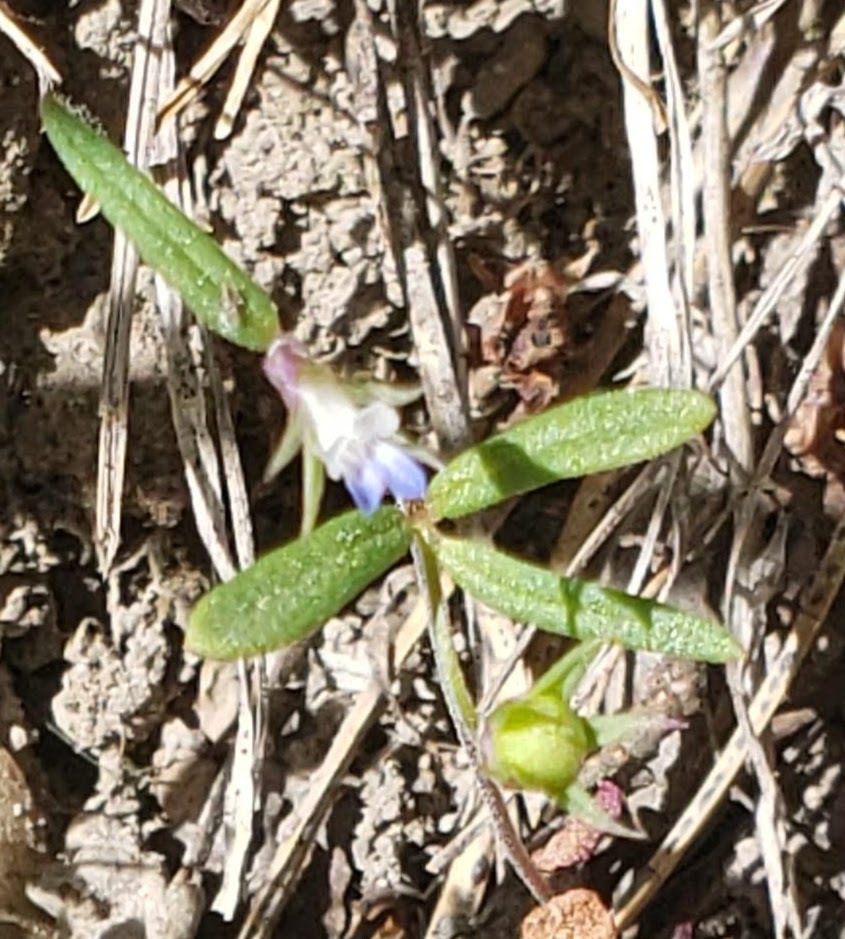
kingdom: Plantae
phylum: Tracheophyta
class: Magnoliopsida
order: Lamiales
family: Plantaginaceae
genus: Collinsia
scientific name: Collinsia parviflora
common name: Blue-lips
